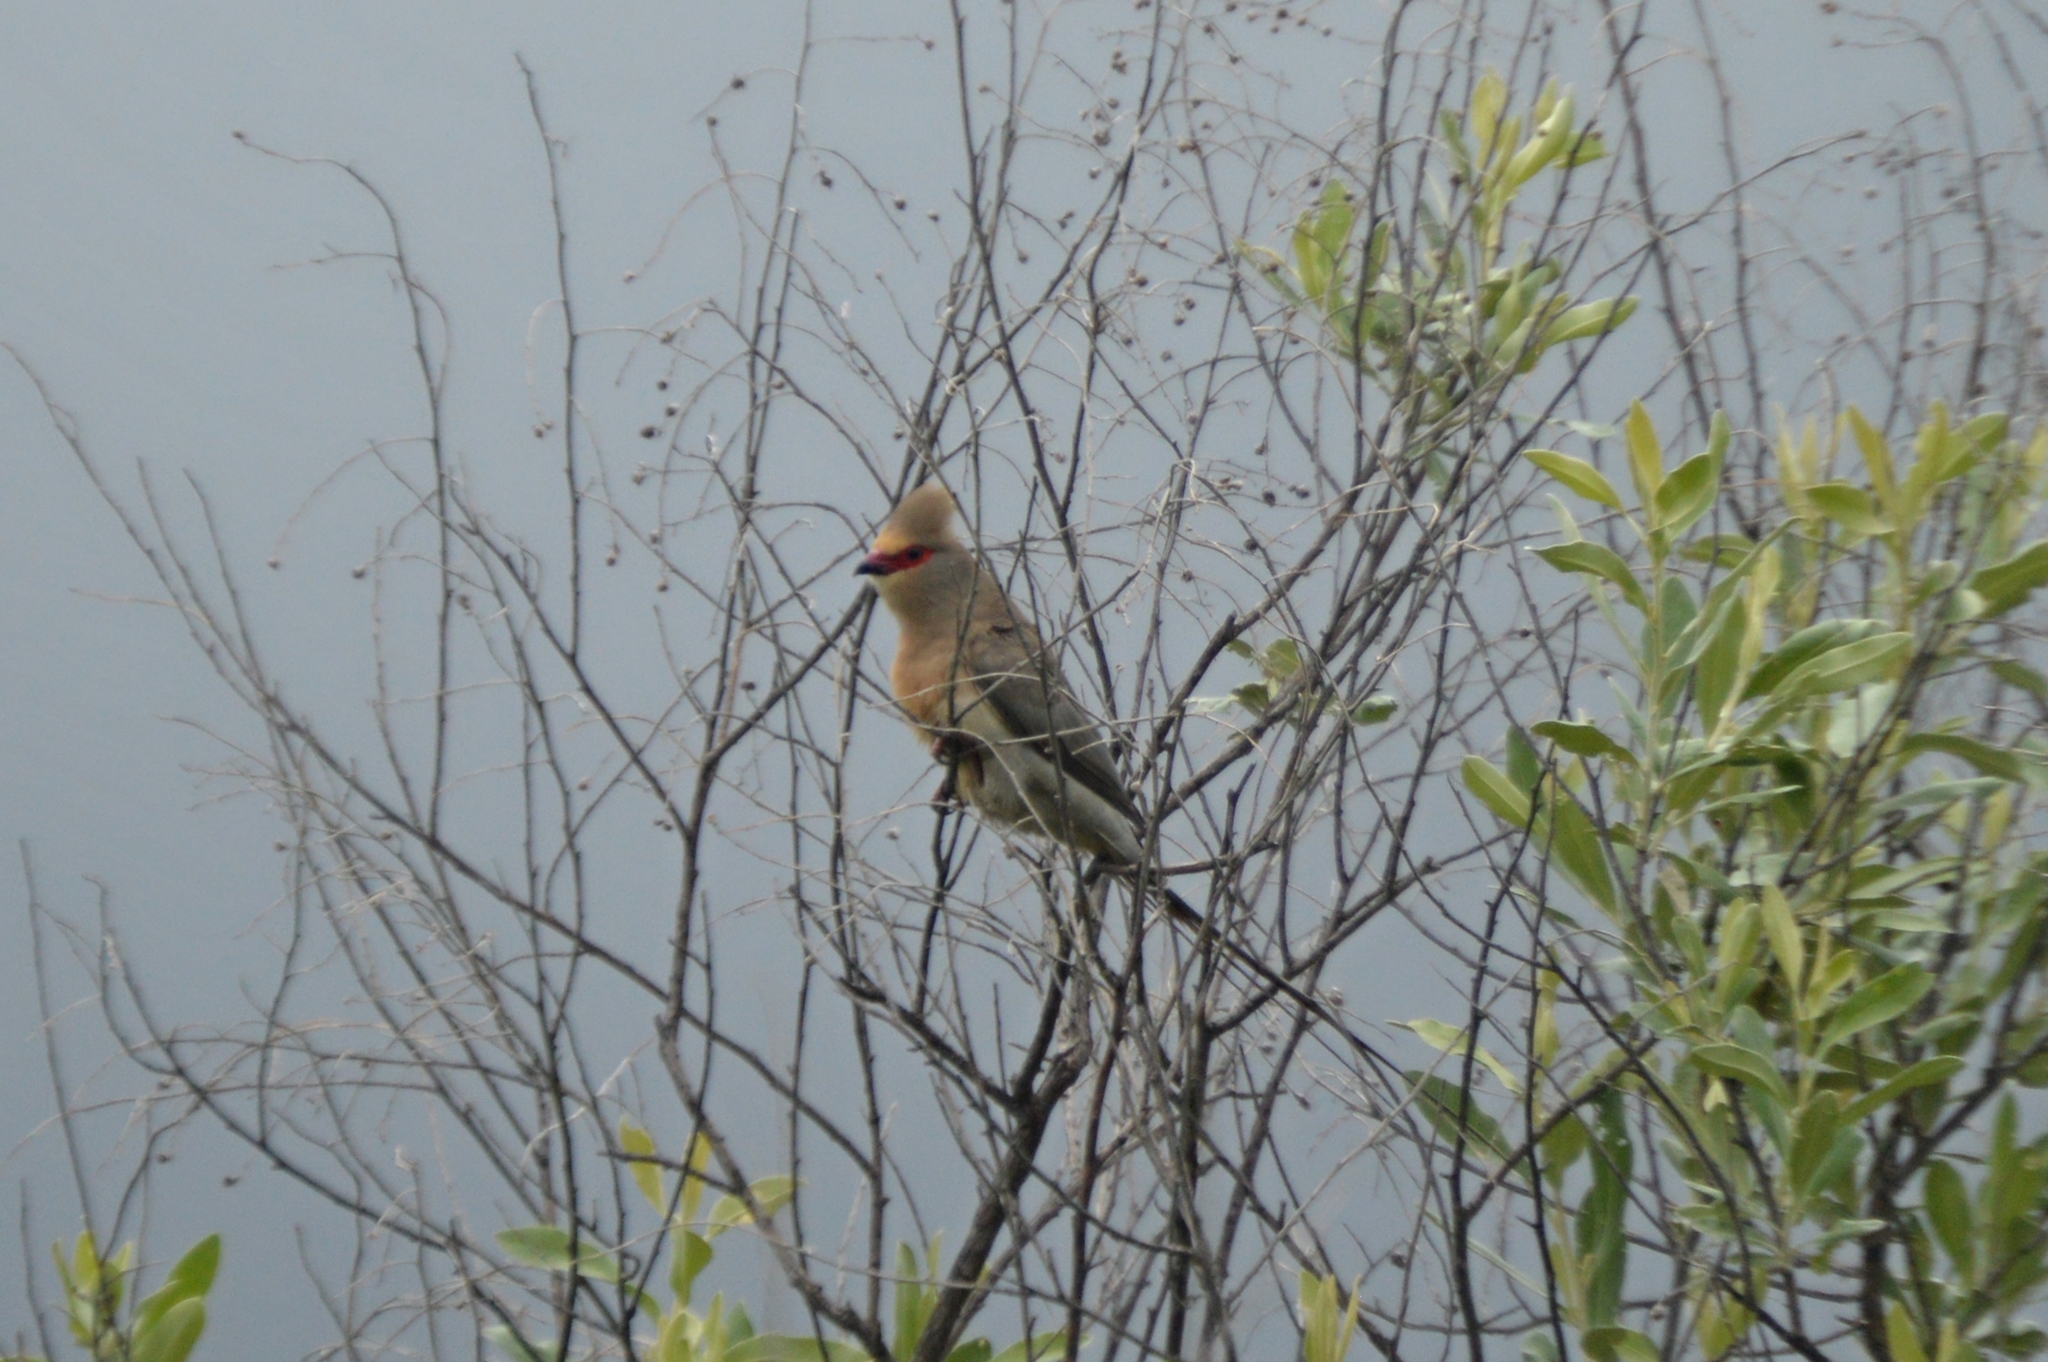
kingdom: Animalia
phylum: Chordata
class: Aves
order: Coliiformes
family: Coliidae
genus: Urocolius
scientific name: Urocolius indicus
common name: Red-faced mousebird
